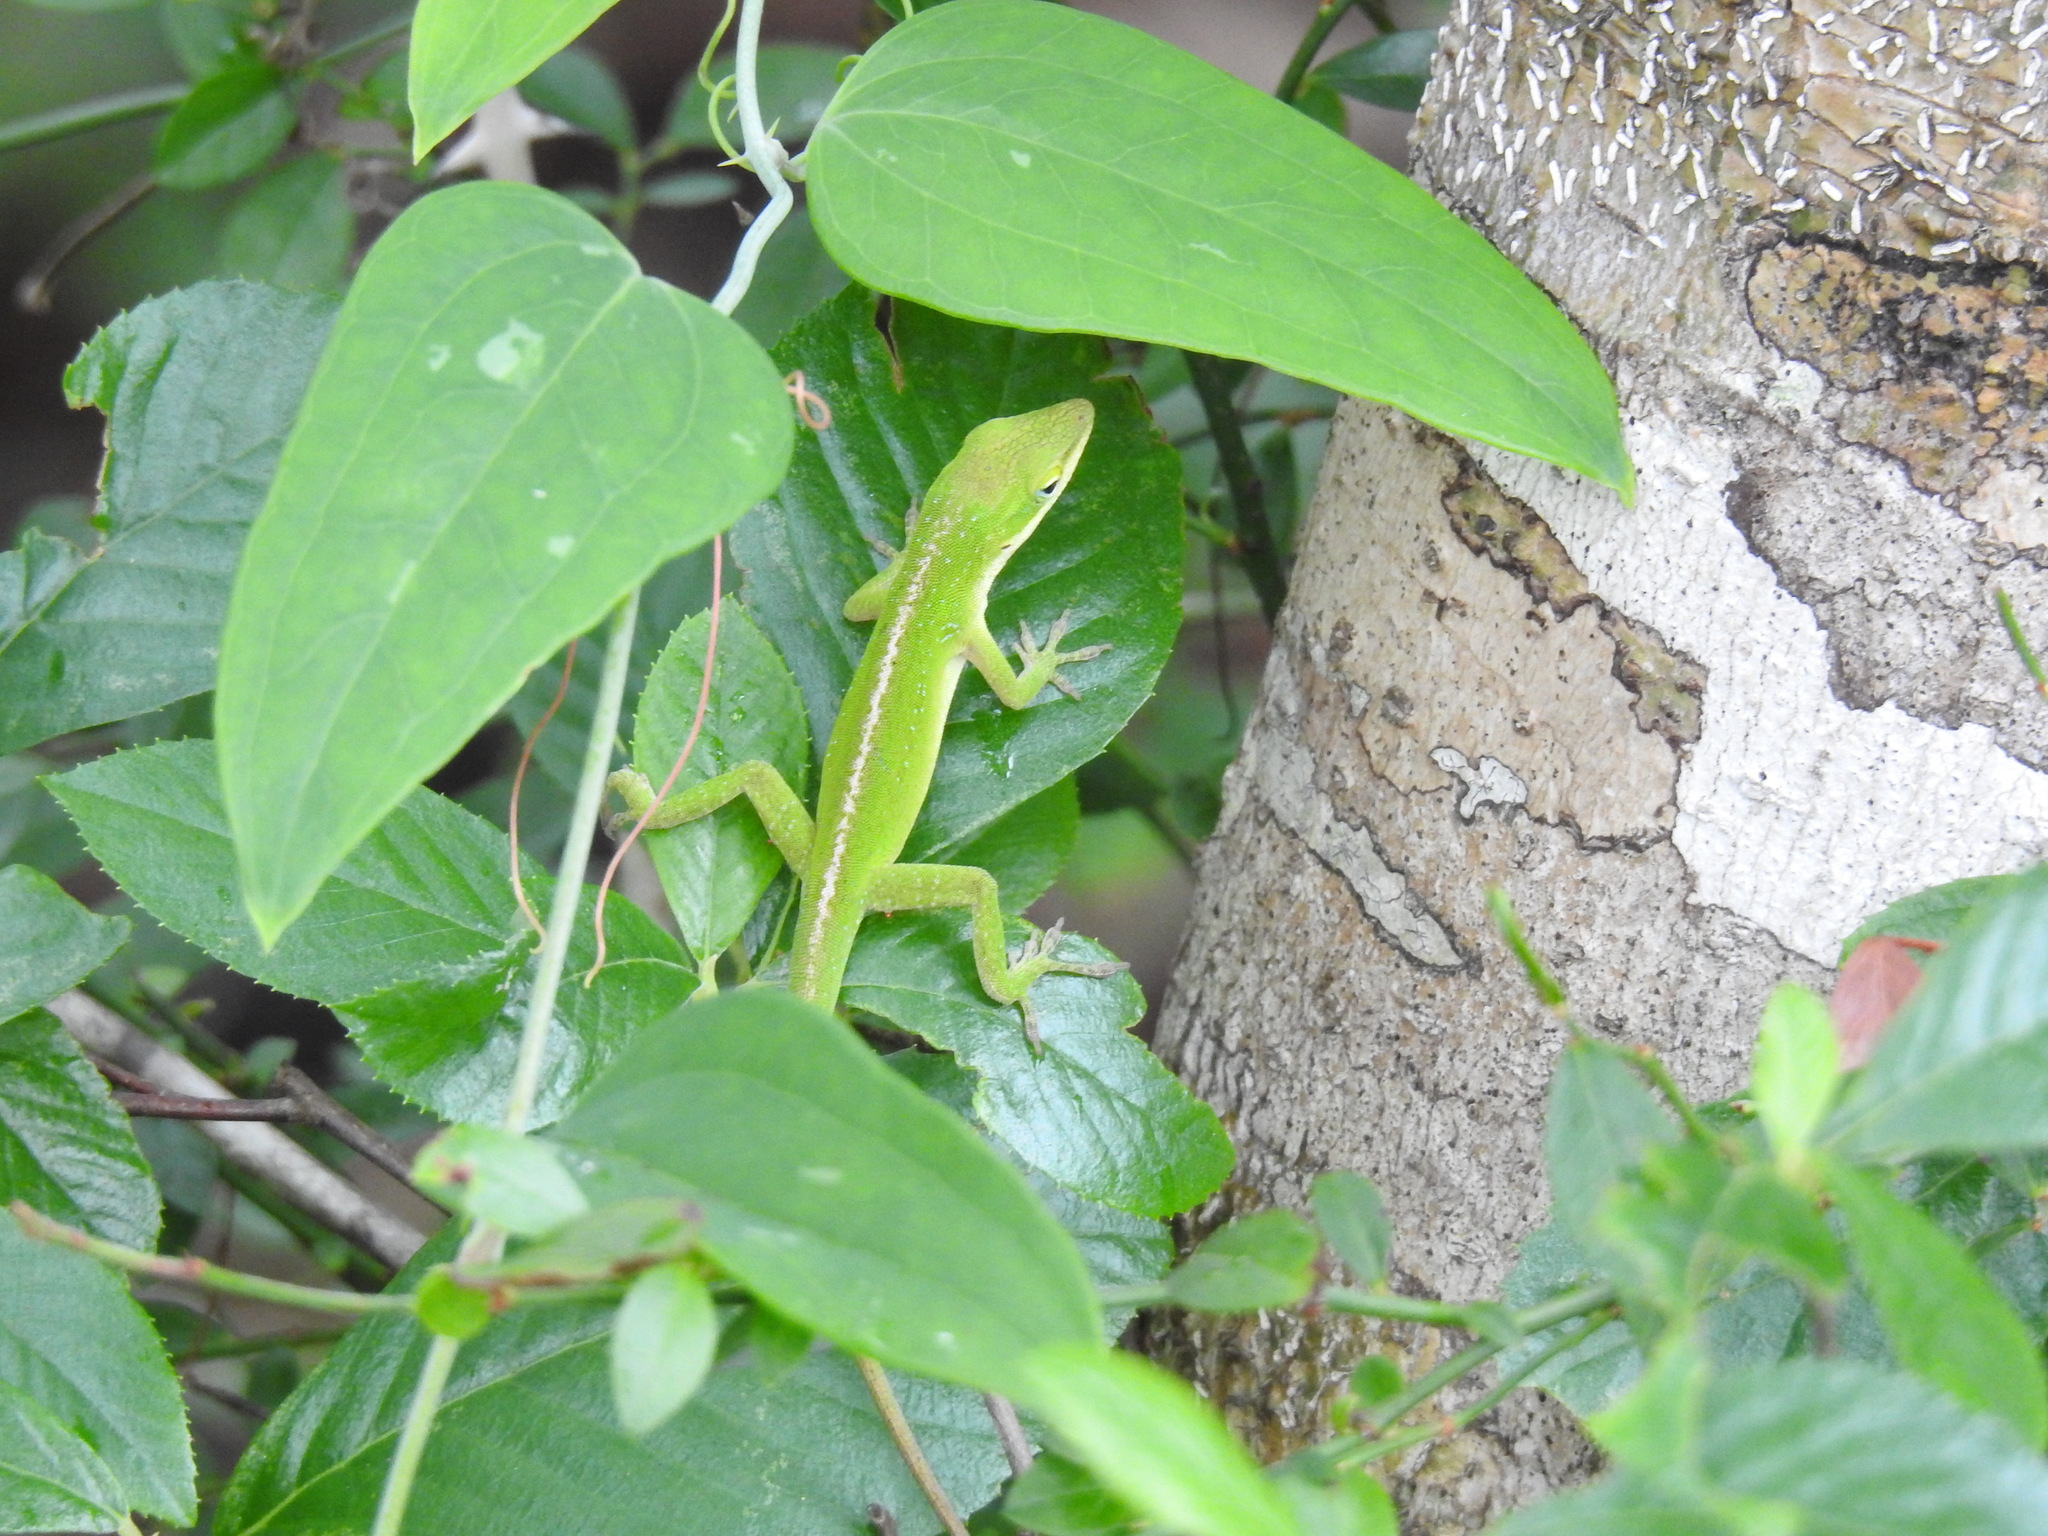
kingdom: Animalia
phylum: Chordata
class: Squamata
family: Dactyloidae
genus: Anolis
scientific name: Anolis carolinensis
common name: Green anole
